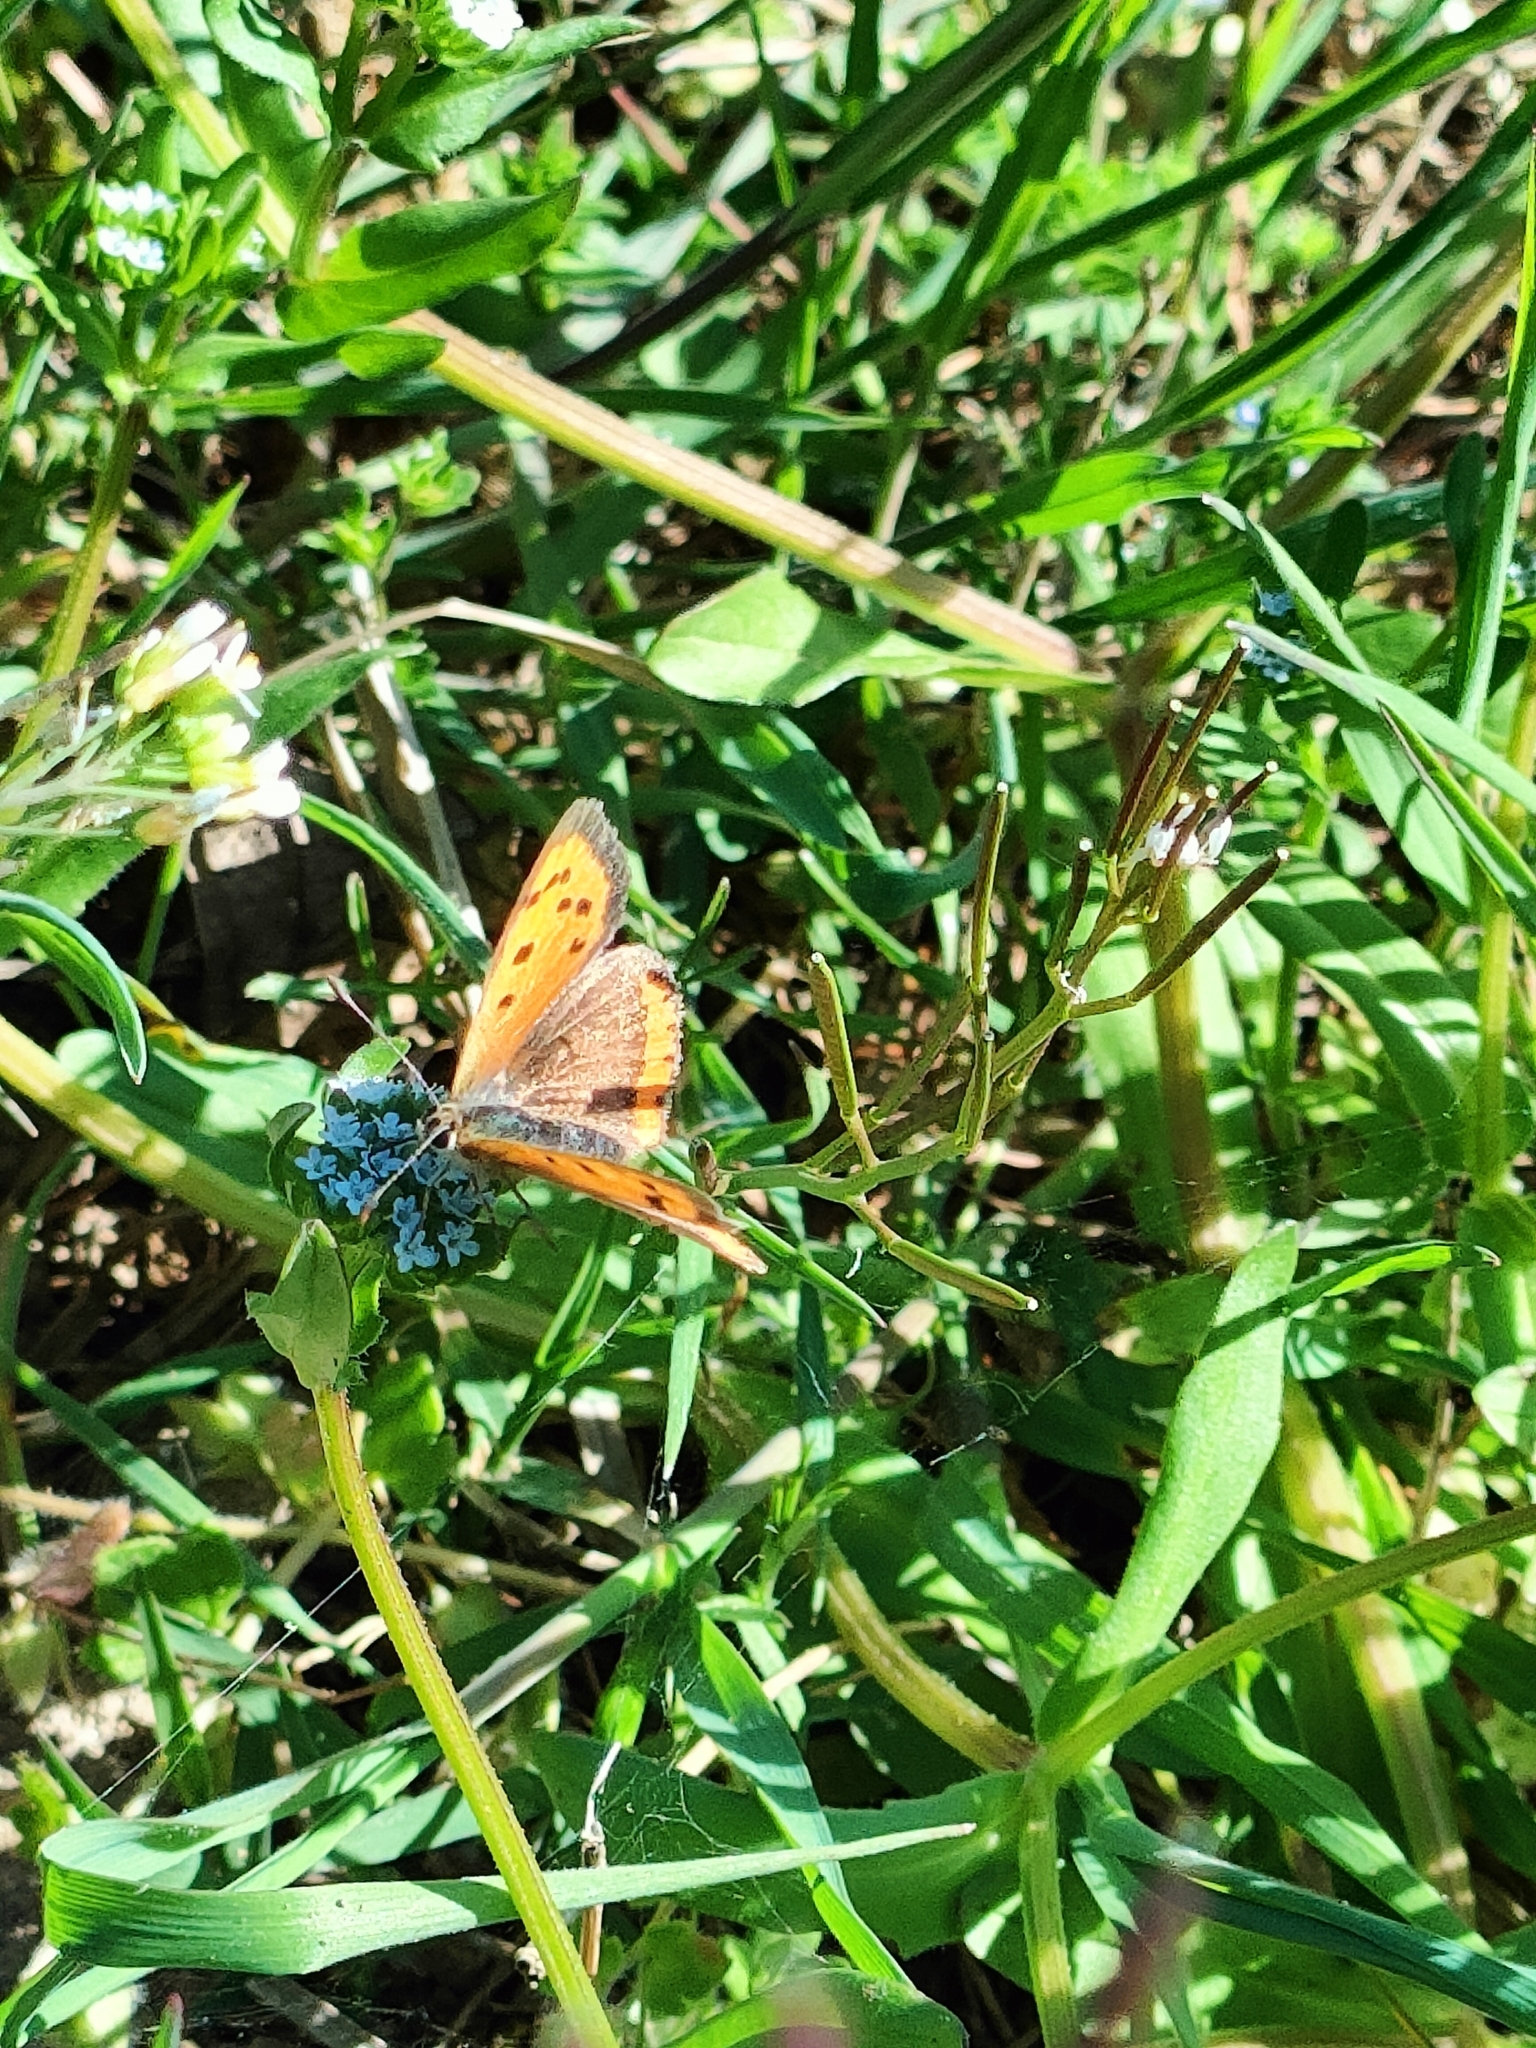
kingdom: Animalia
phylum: Arthropoda
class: Insecta
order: Lepidoptera
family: Lycaenidae
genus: Lycaena
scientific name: Lycaena phlaeas
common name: Small copper
